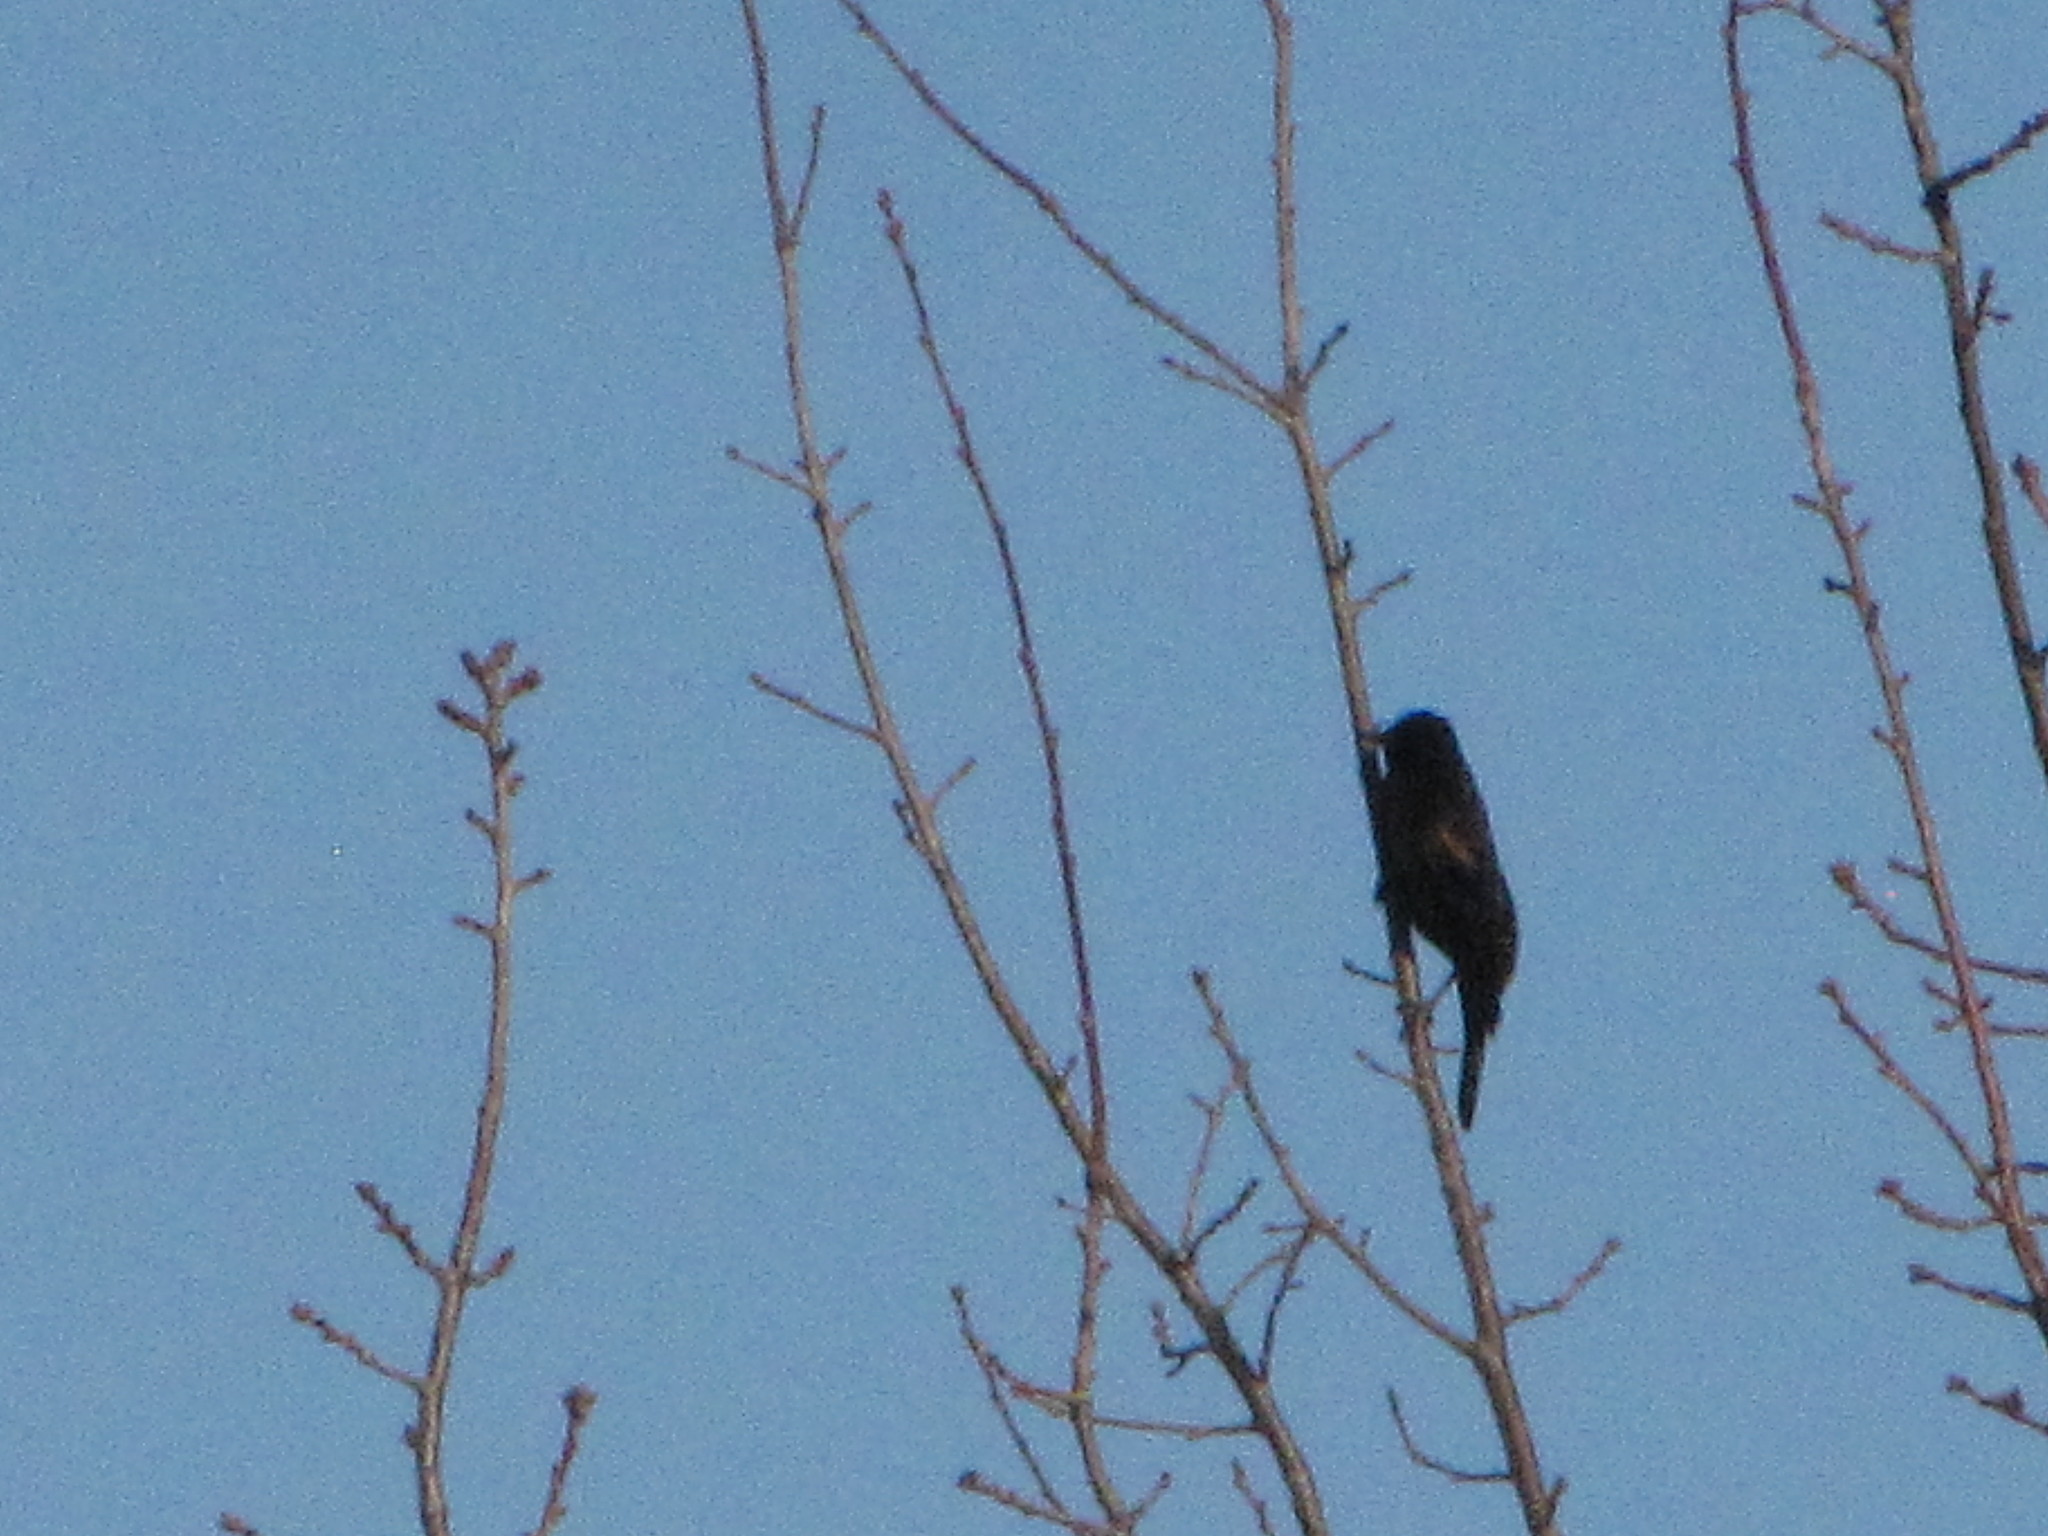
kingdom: Animalia
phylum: Chordata
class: Aves
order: Passeriformes
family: Icteridae
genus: Agelaius
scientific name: Agelaius phoeniceus
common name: Red-winged blackbird
